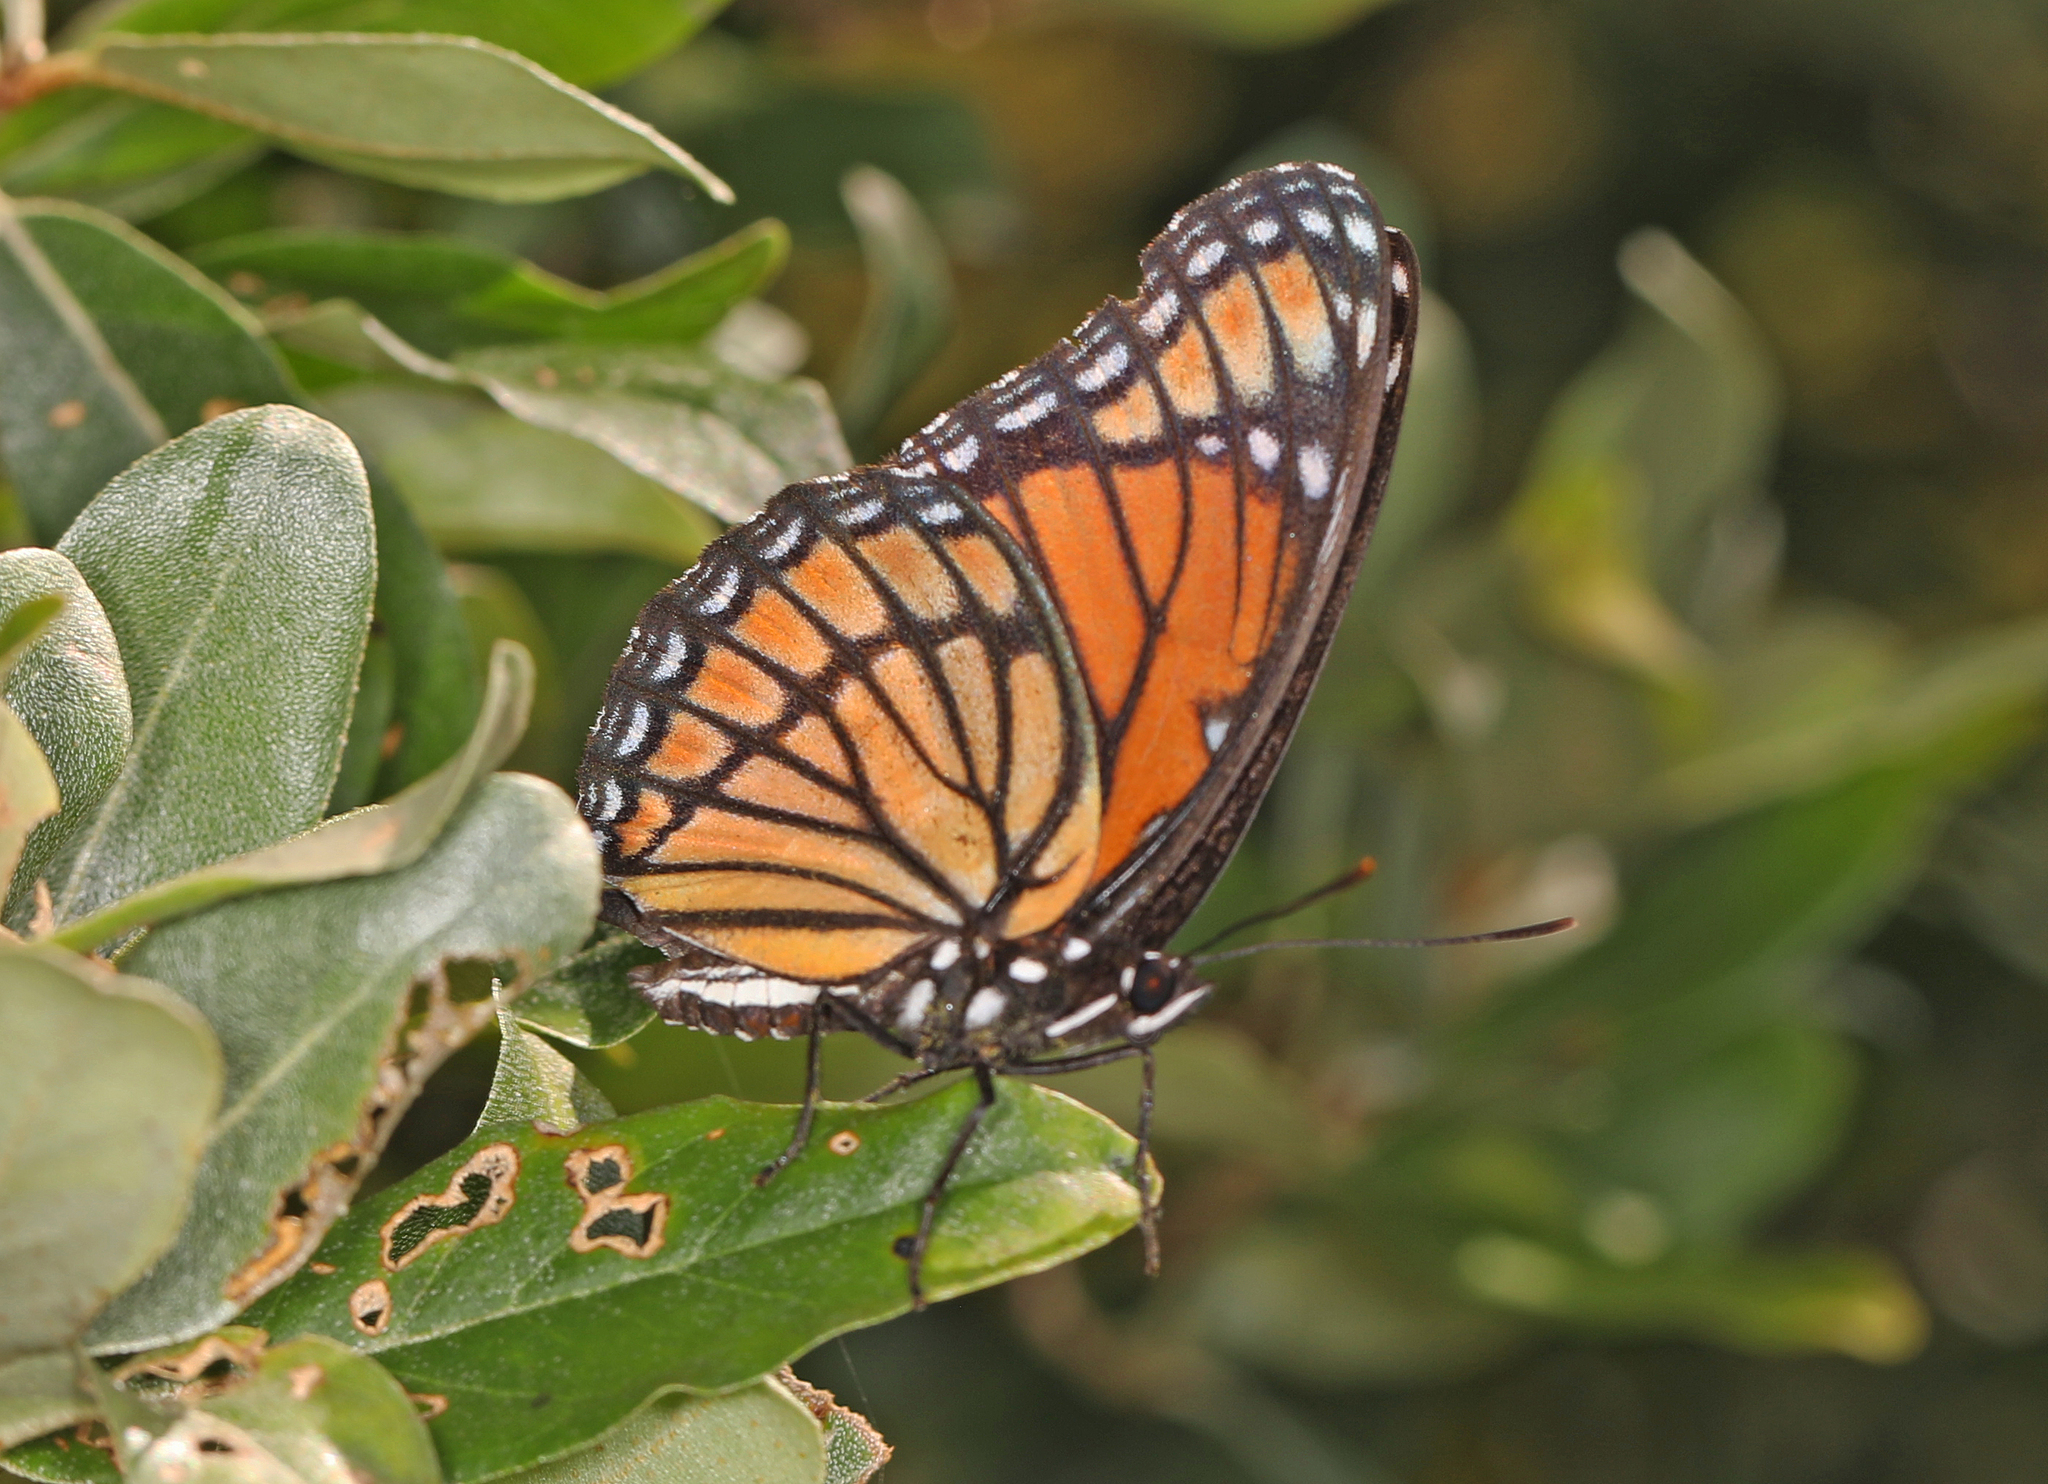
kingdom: Animalia
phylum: Arthropoda
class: Insecta
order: Lepidoptera
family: Nymphalidae
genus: Limenitis
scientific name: Limenitis archippus
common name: Viceroy
